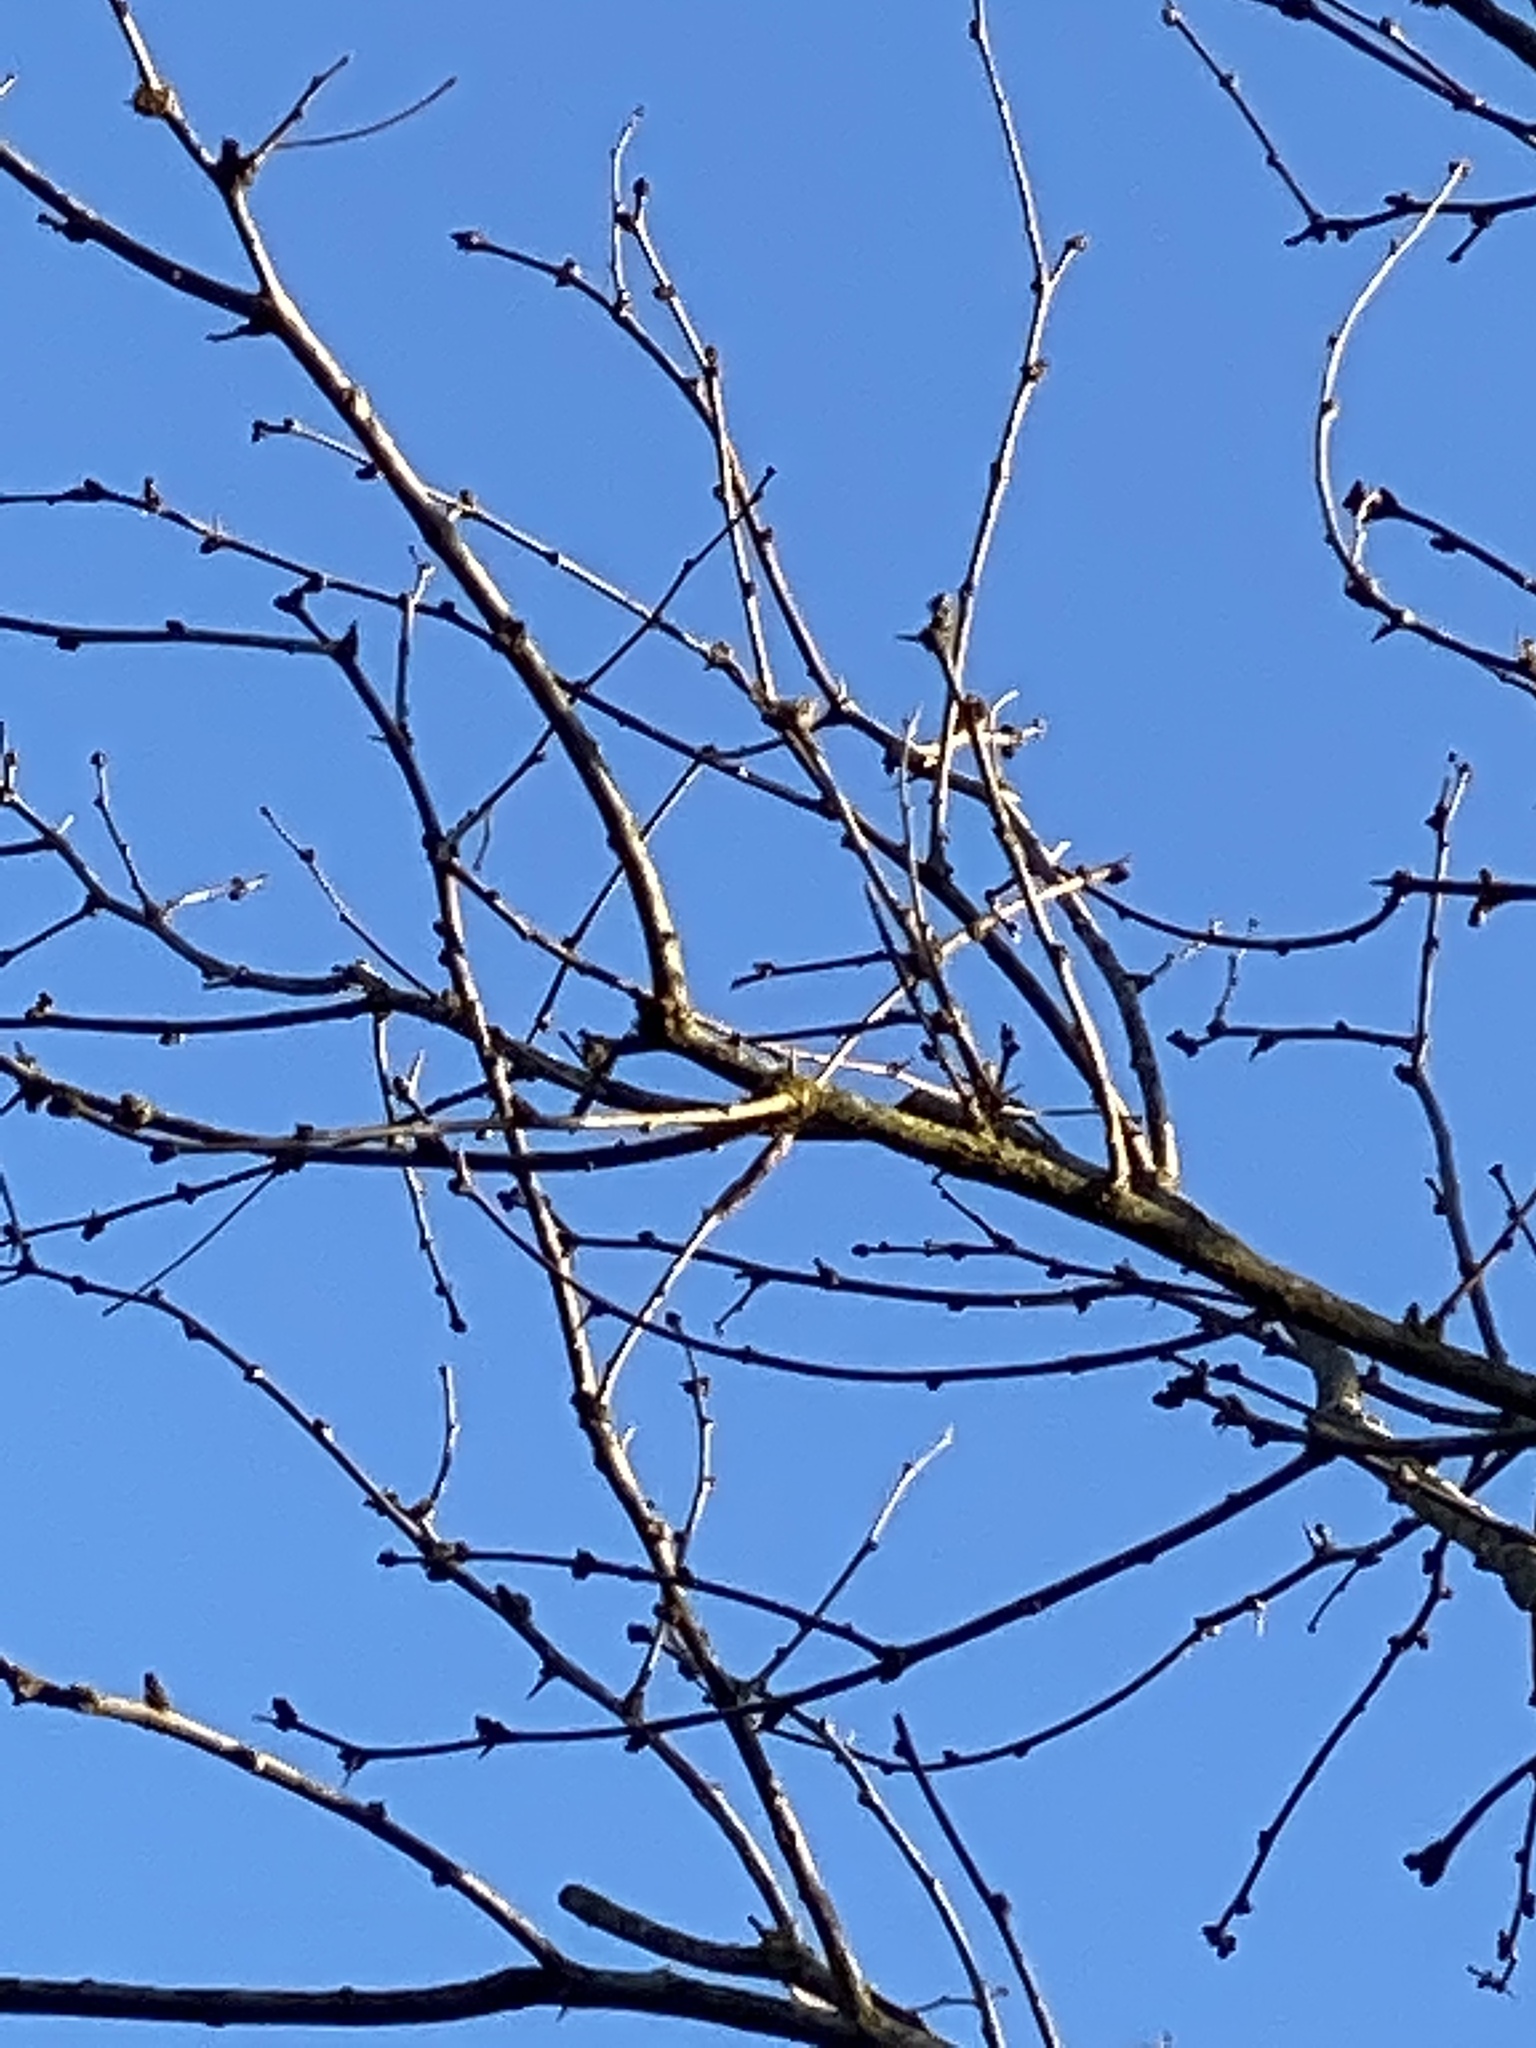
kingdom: Plantae
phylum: Tracheophyta
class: Magnoliopsida
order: Fabales
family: Fabaceae
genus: Prosopis
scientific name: Prosopis glandulosa
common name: Honey mesquite
